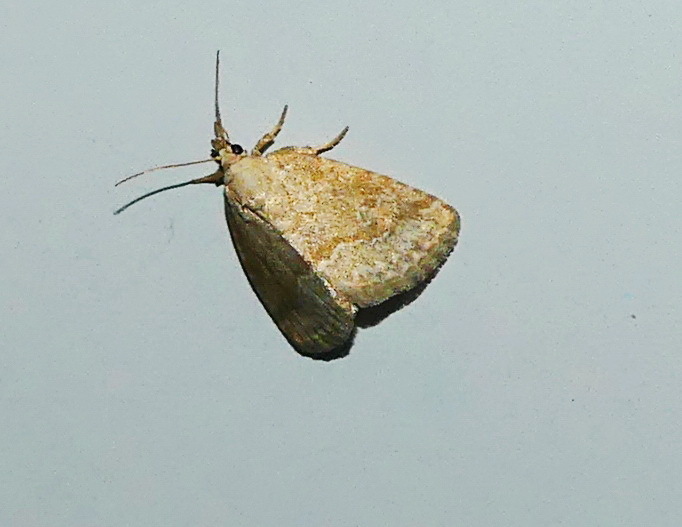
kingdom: Animalia
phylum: Arthropoda
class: Insecta
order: Lepidoptera
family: Noctuidae
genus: Protodeltote
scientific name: Protodeltote albidula
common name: Pale glyph
